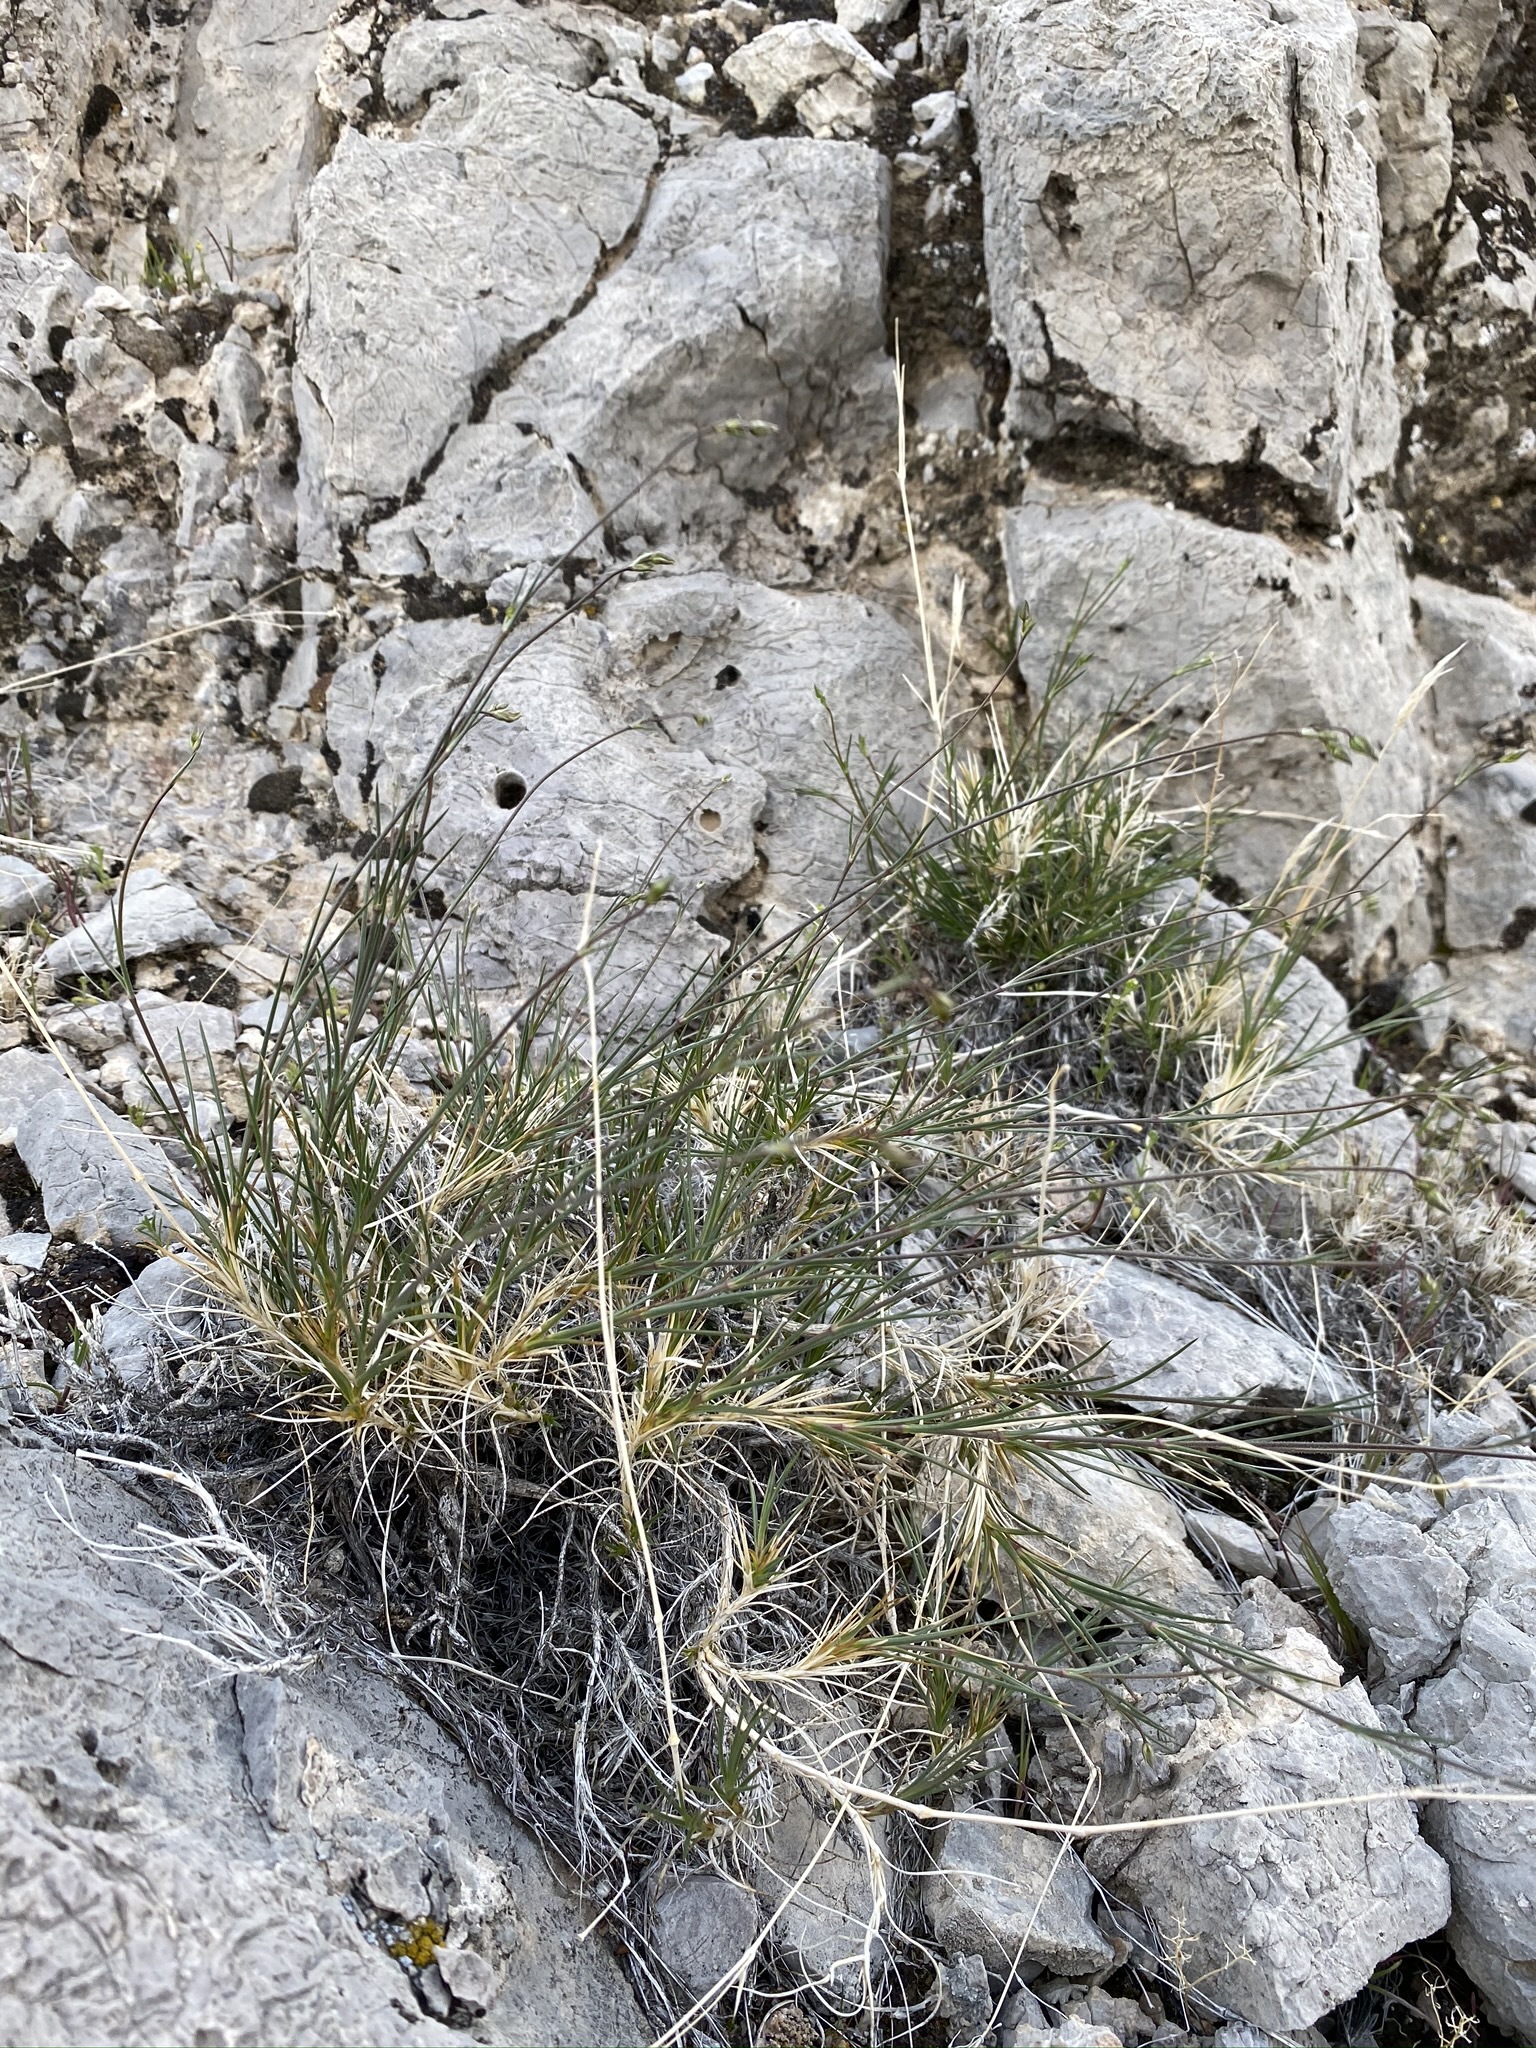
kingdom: Plantae
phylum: Tracheophyta
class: Magnoliopsida
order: Caryophyllales
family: Caryophyllaceae
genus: Eremogone
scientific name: Eremogone macradenia
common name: Mohave sandwort
